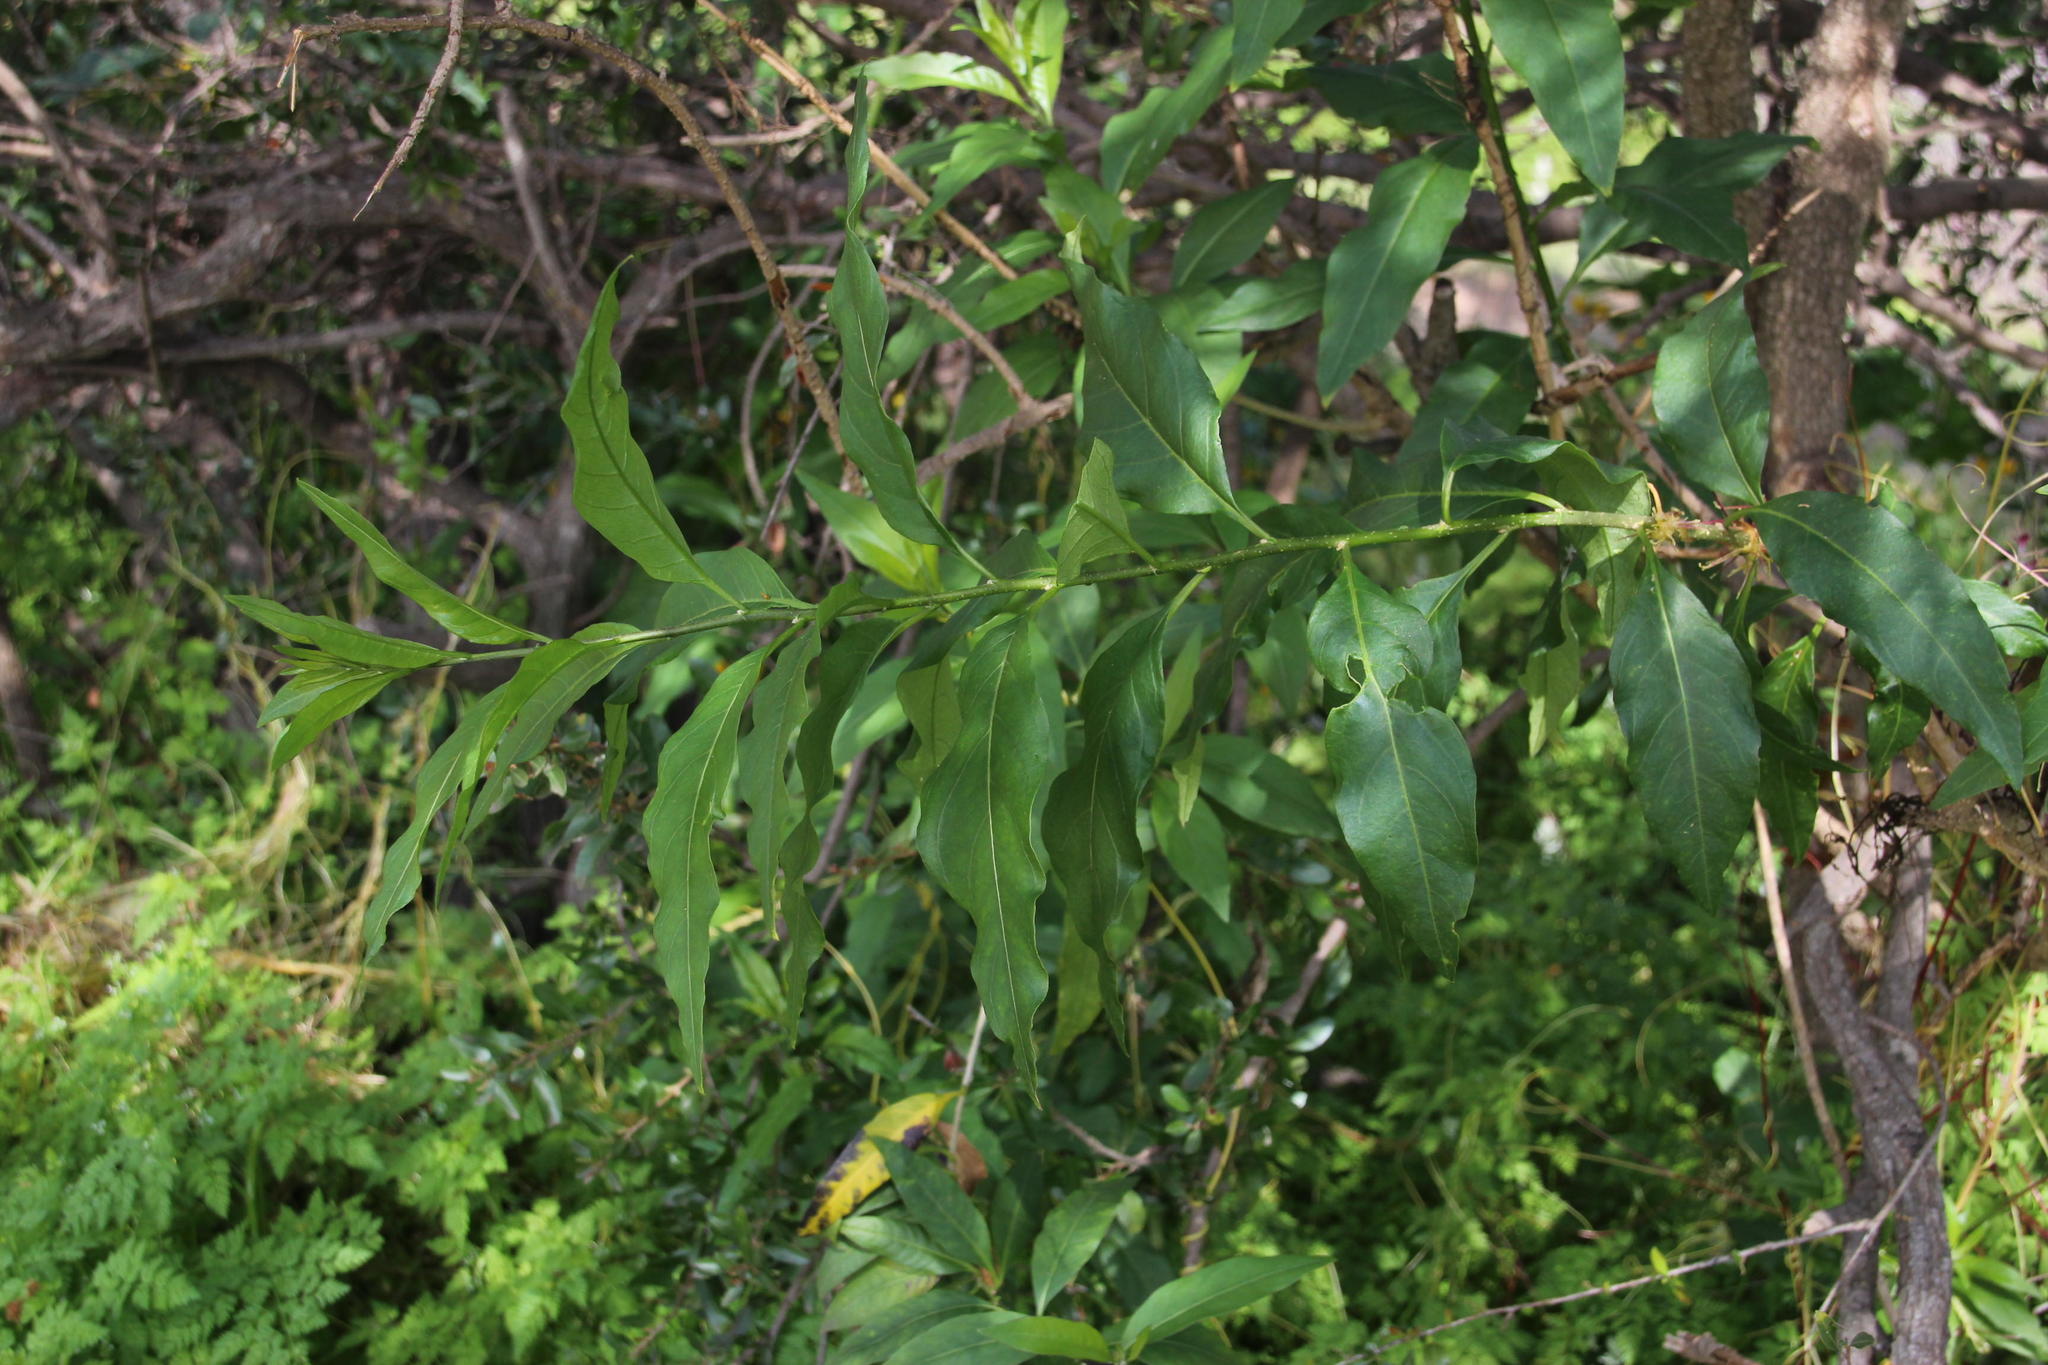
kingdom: Plantae
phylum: Tracheophyta
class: Magnoliopsida
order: Solanales
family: Solanaceae
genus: Cestrum
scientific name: Cestrum parqui
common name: Chilean cestrum
